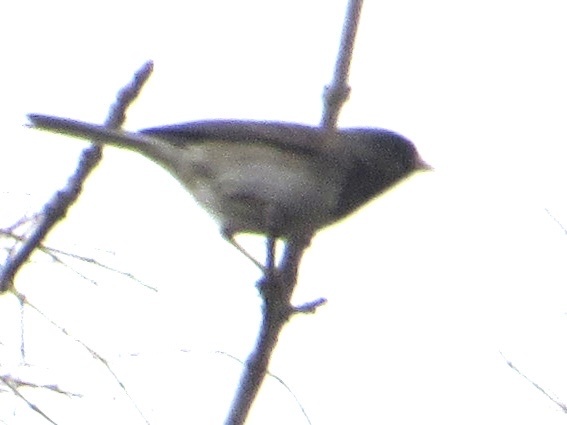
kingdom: Animalia
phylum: Chordata
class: Aves
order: Passeriformes
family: Passerellidae
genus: Junco
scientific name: Junco hyemalis
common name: Dark-eyed junco
